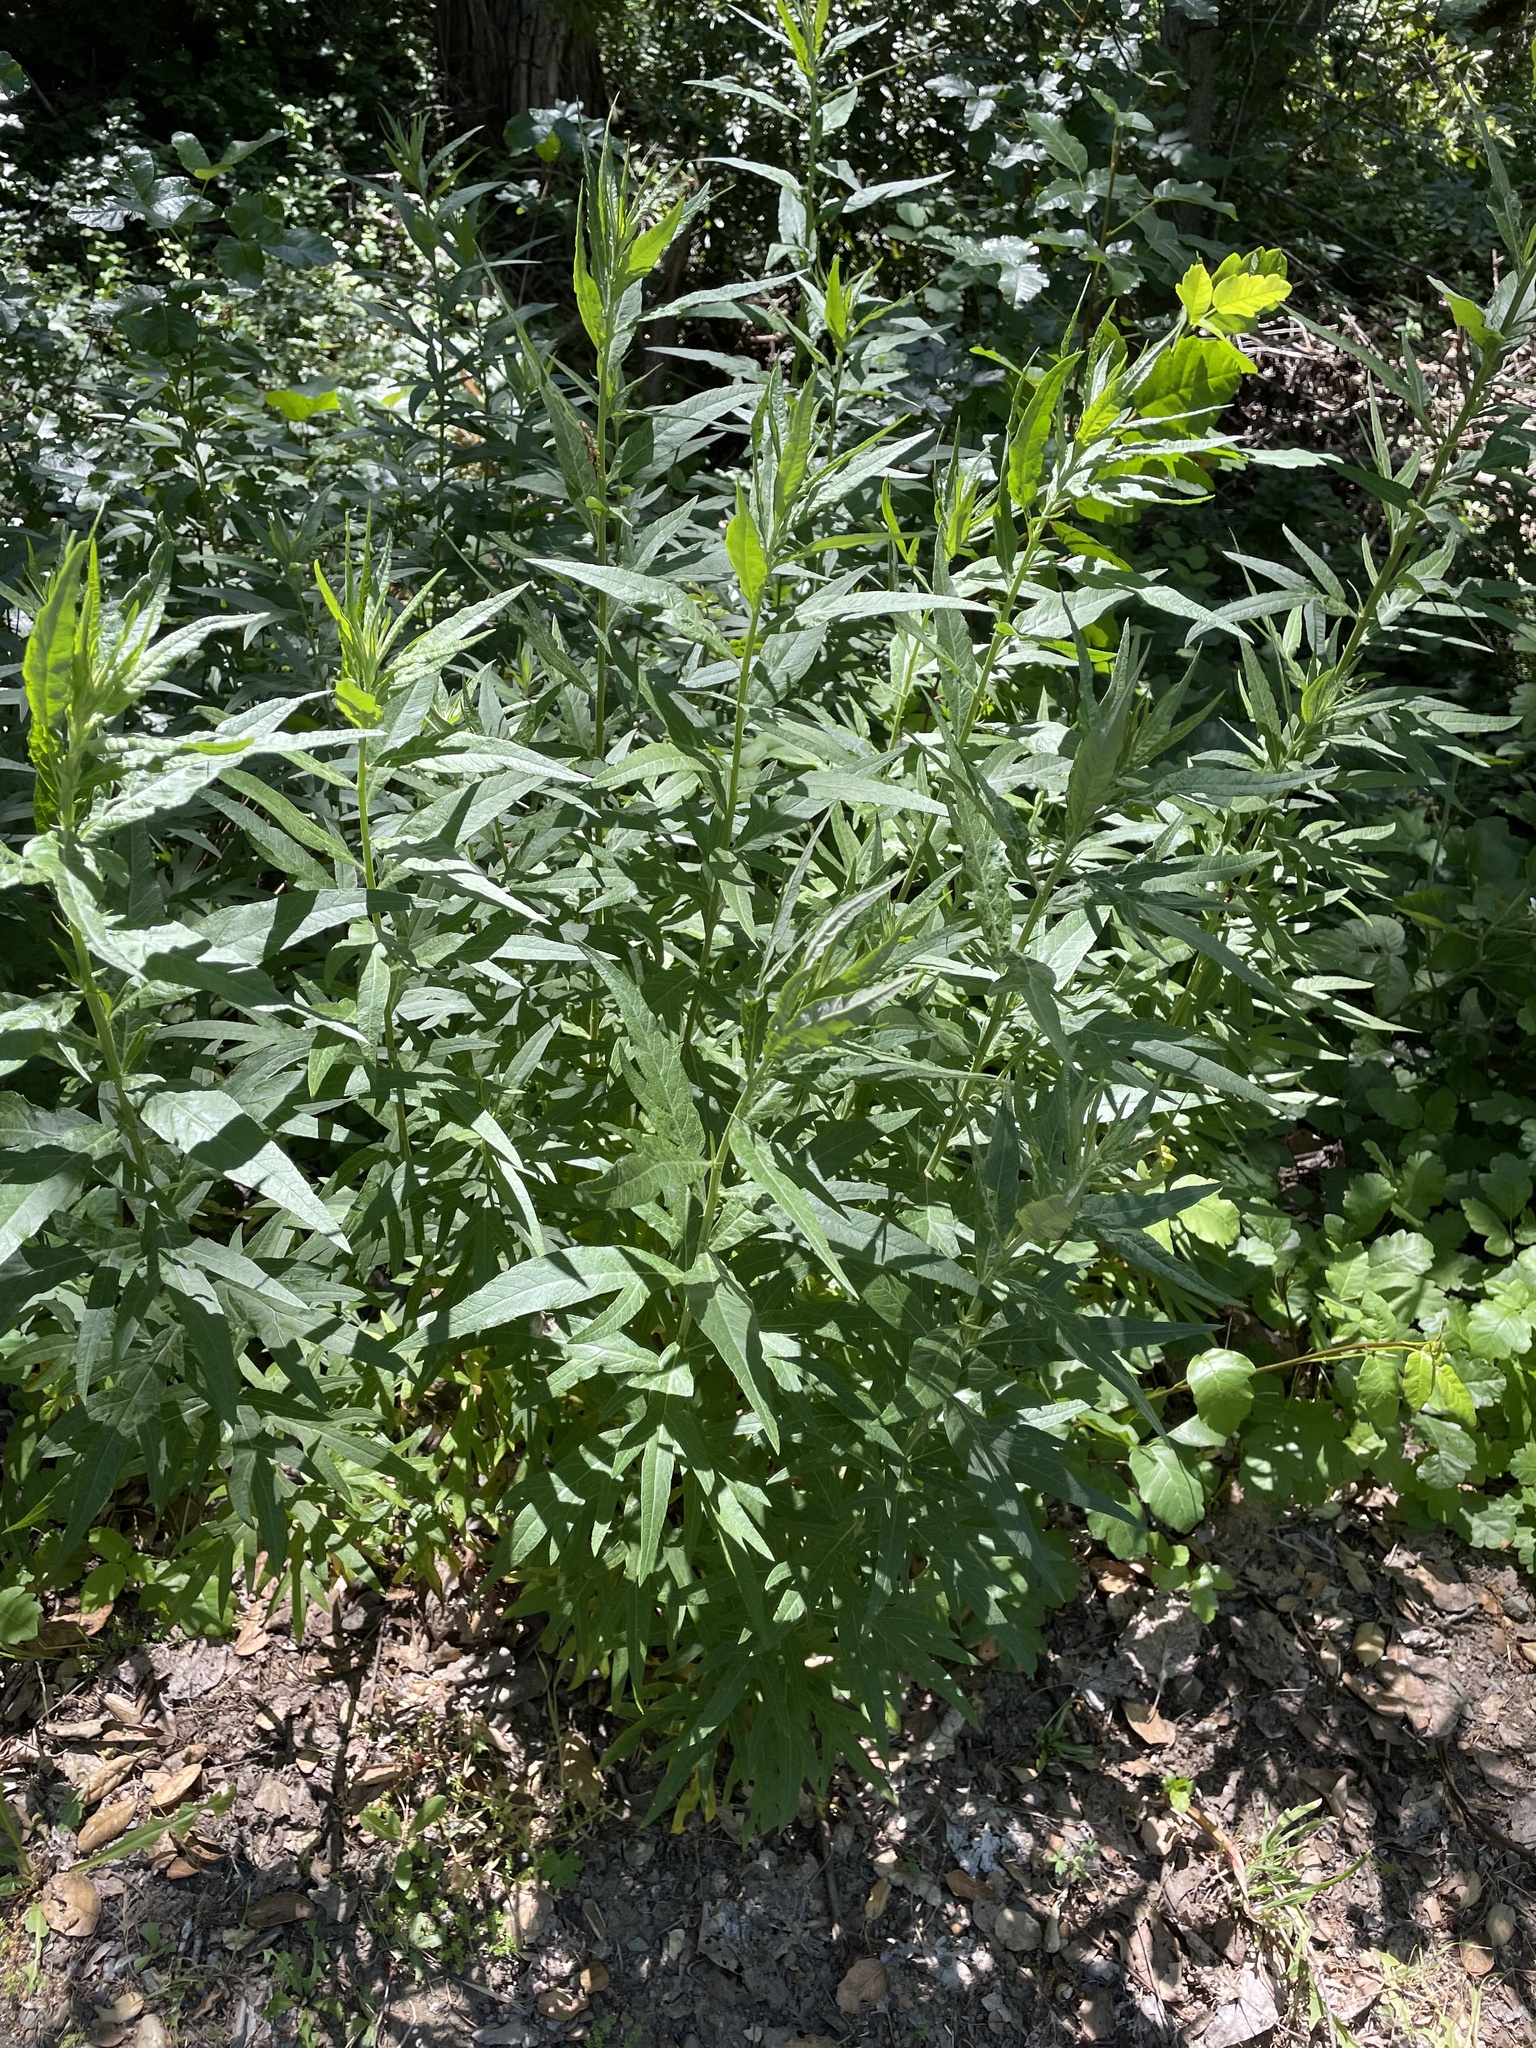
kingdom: Plantae
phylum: Tracheophyta
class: Magnoliopsida
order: Asterales
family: Asteraceae
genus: Artemisia
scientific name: Artemisia douglasiana
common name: Northwest mugwort
